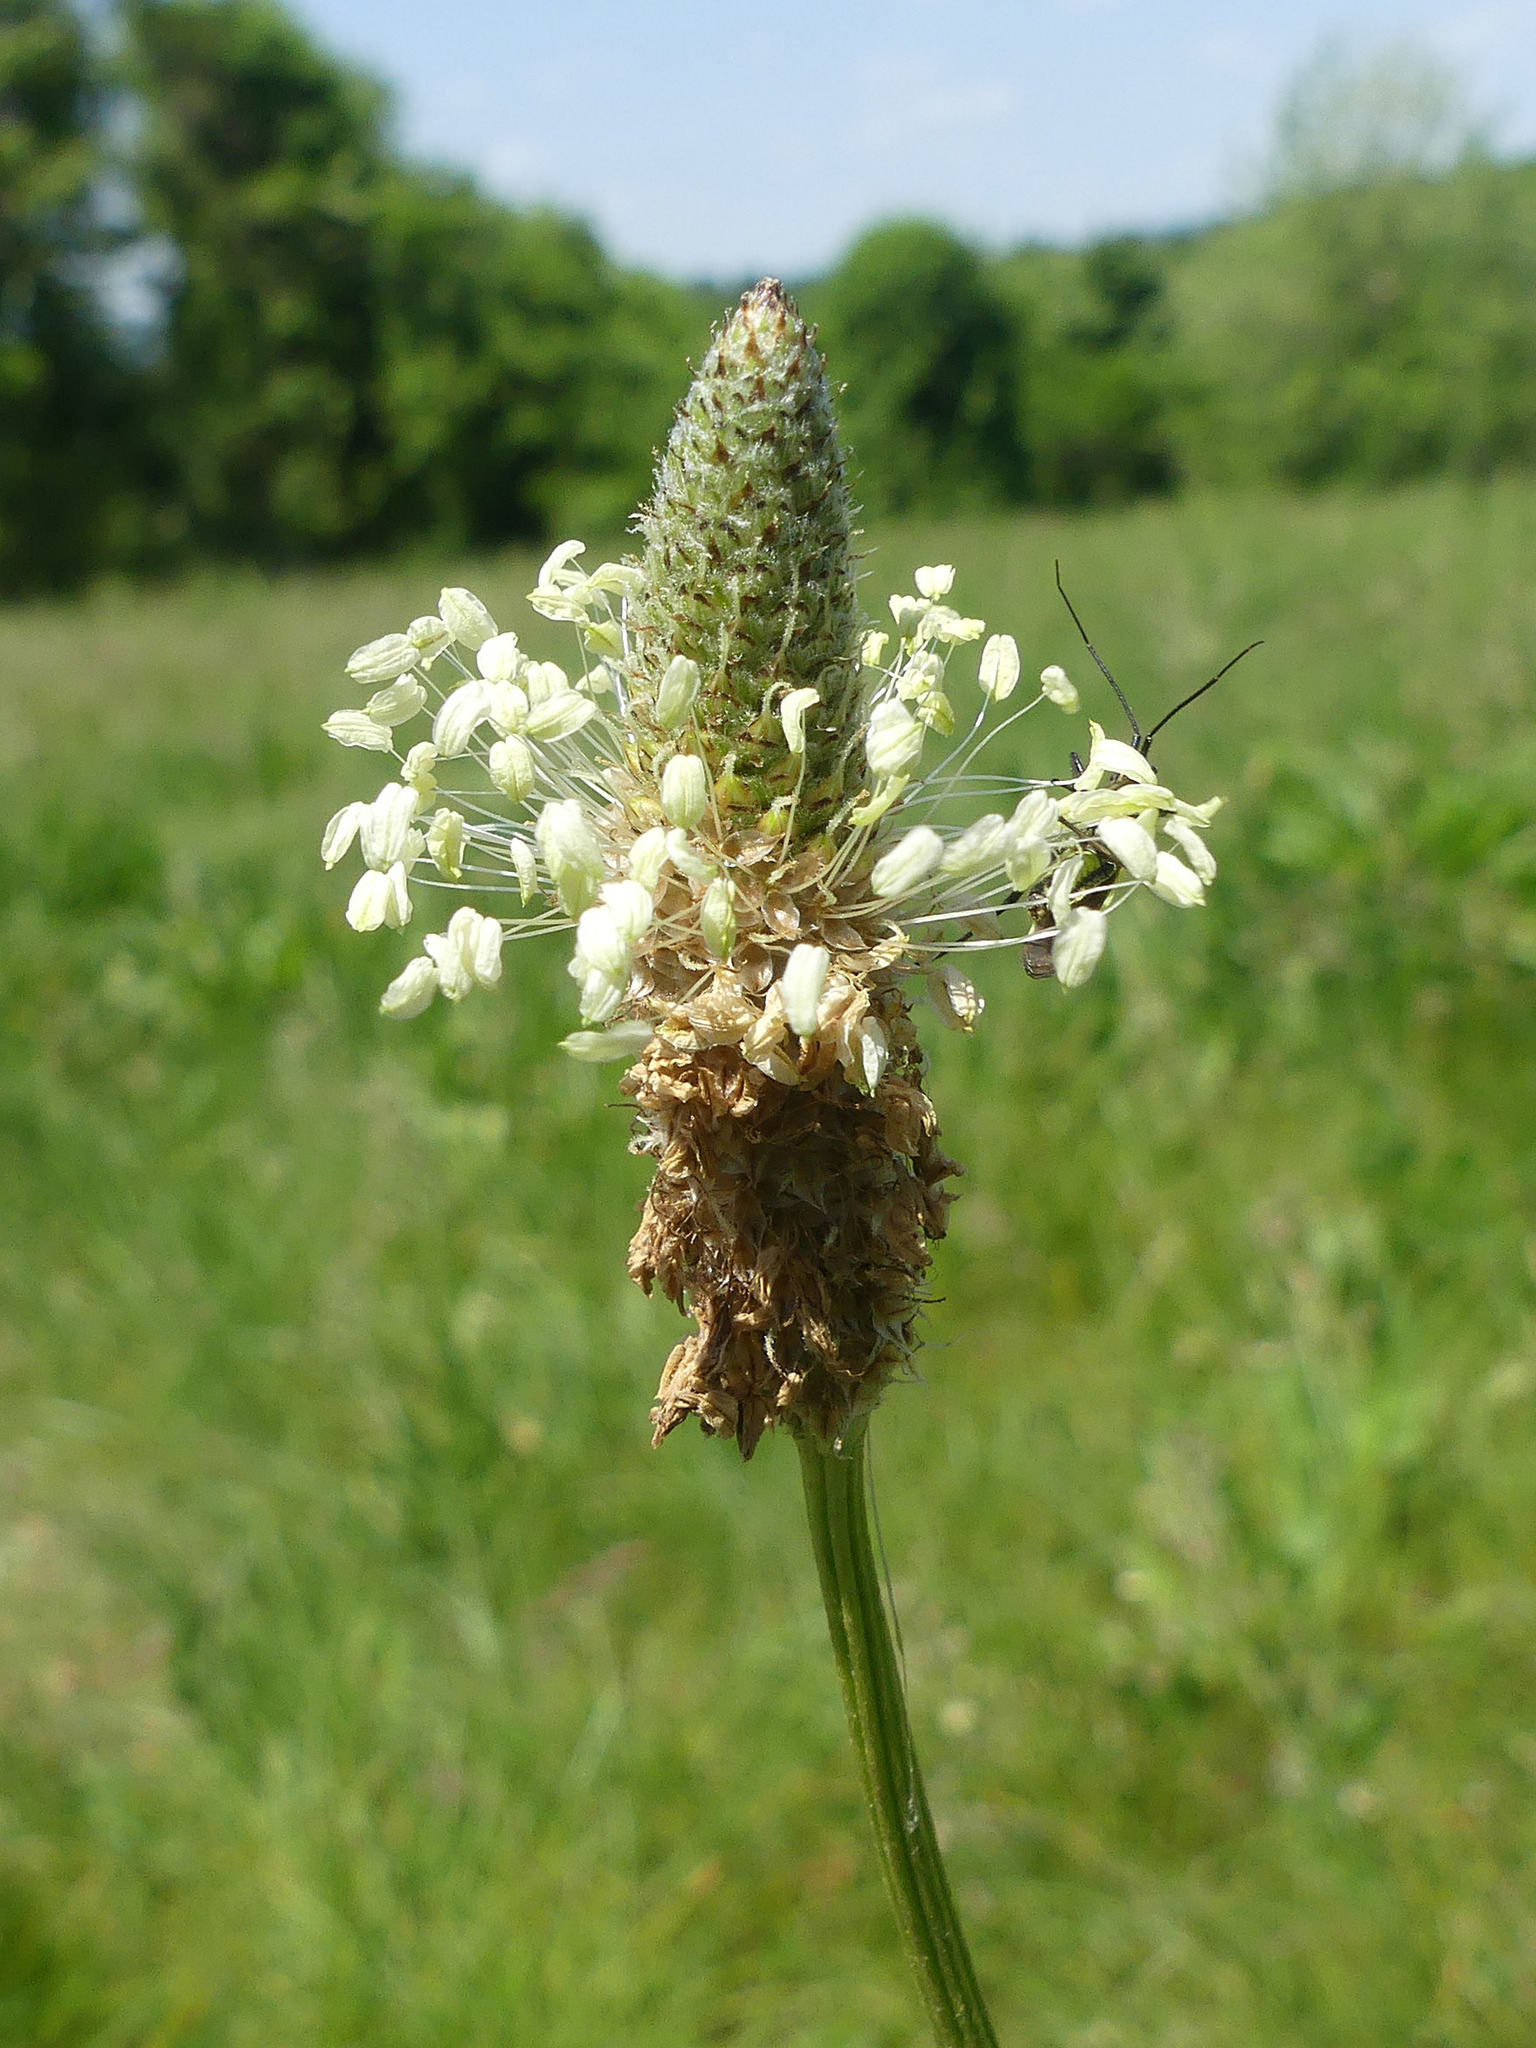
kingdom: Plantae
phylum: Tracheophyta
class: Magnoliopsida
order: Lamiales
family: Plantaginaceae
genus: Plantago
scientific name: Plantago lanceolata
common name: Ribwort plantain
